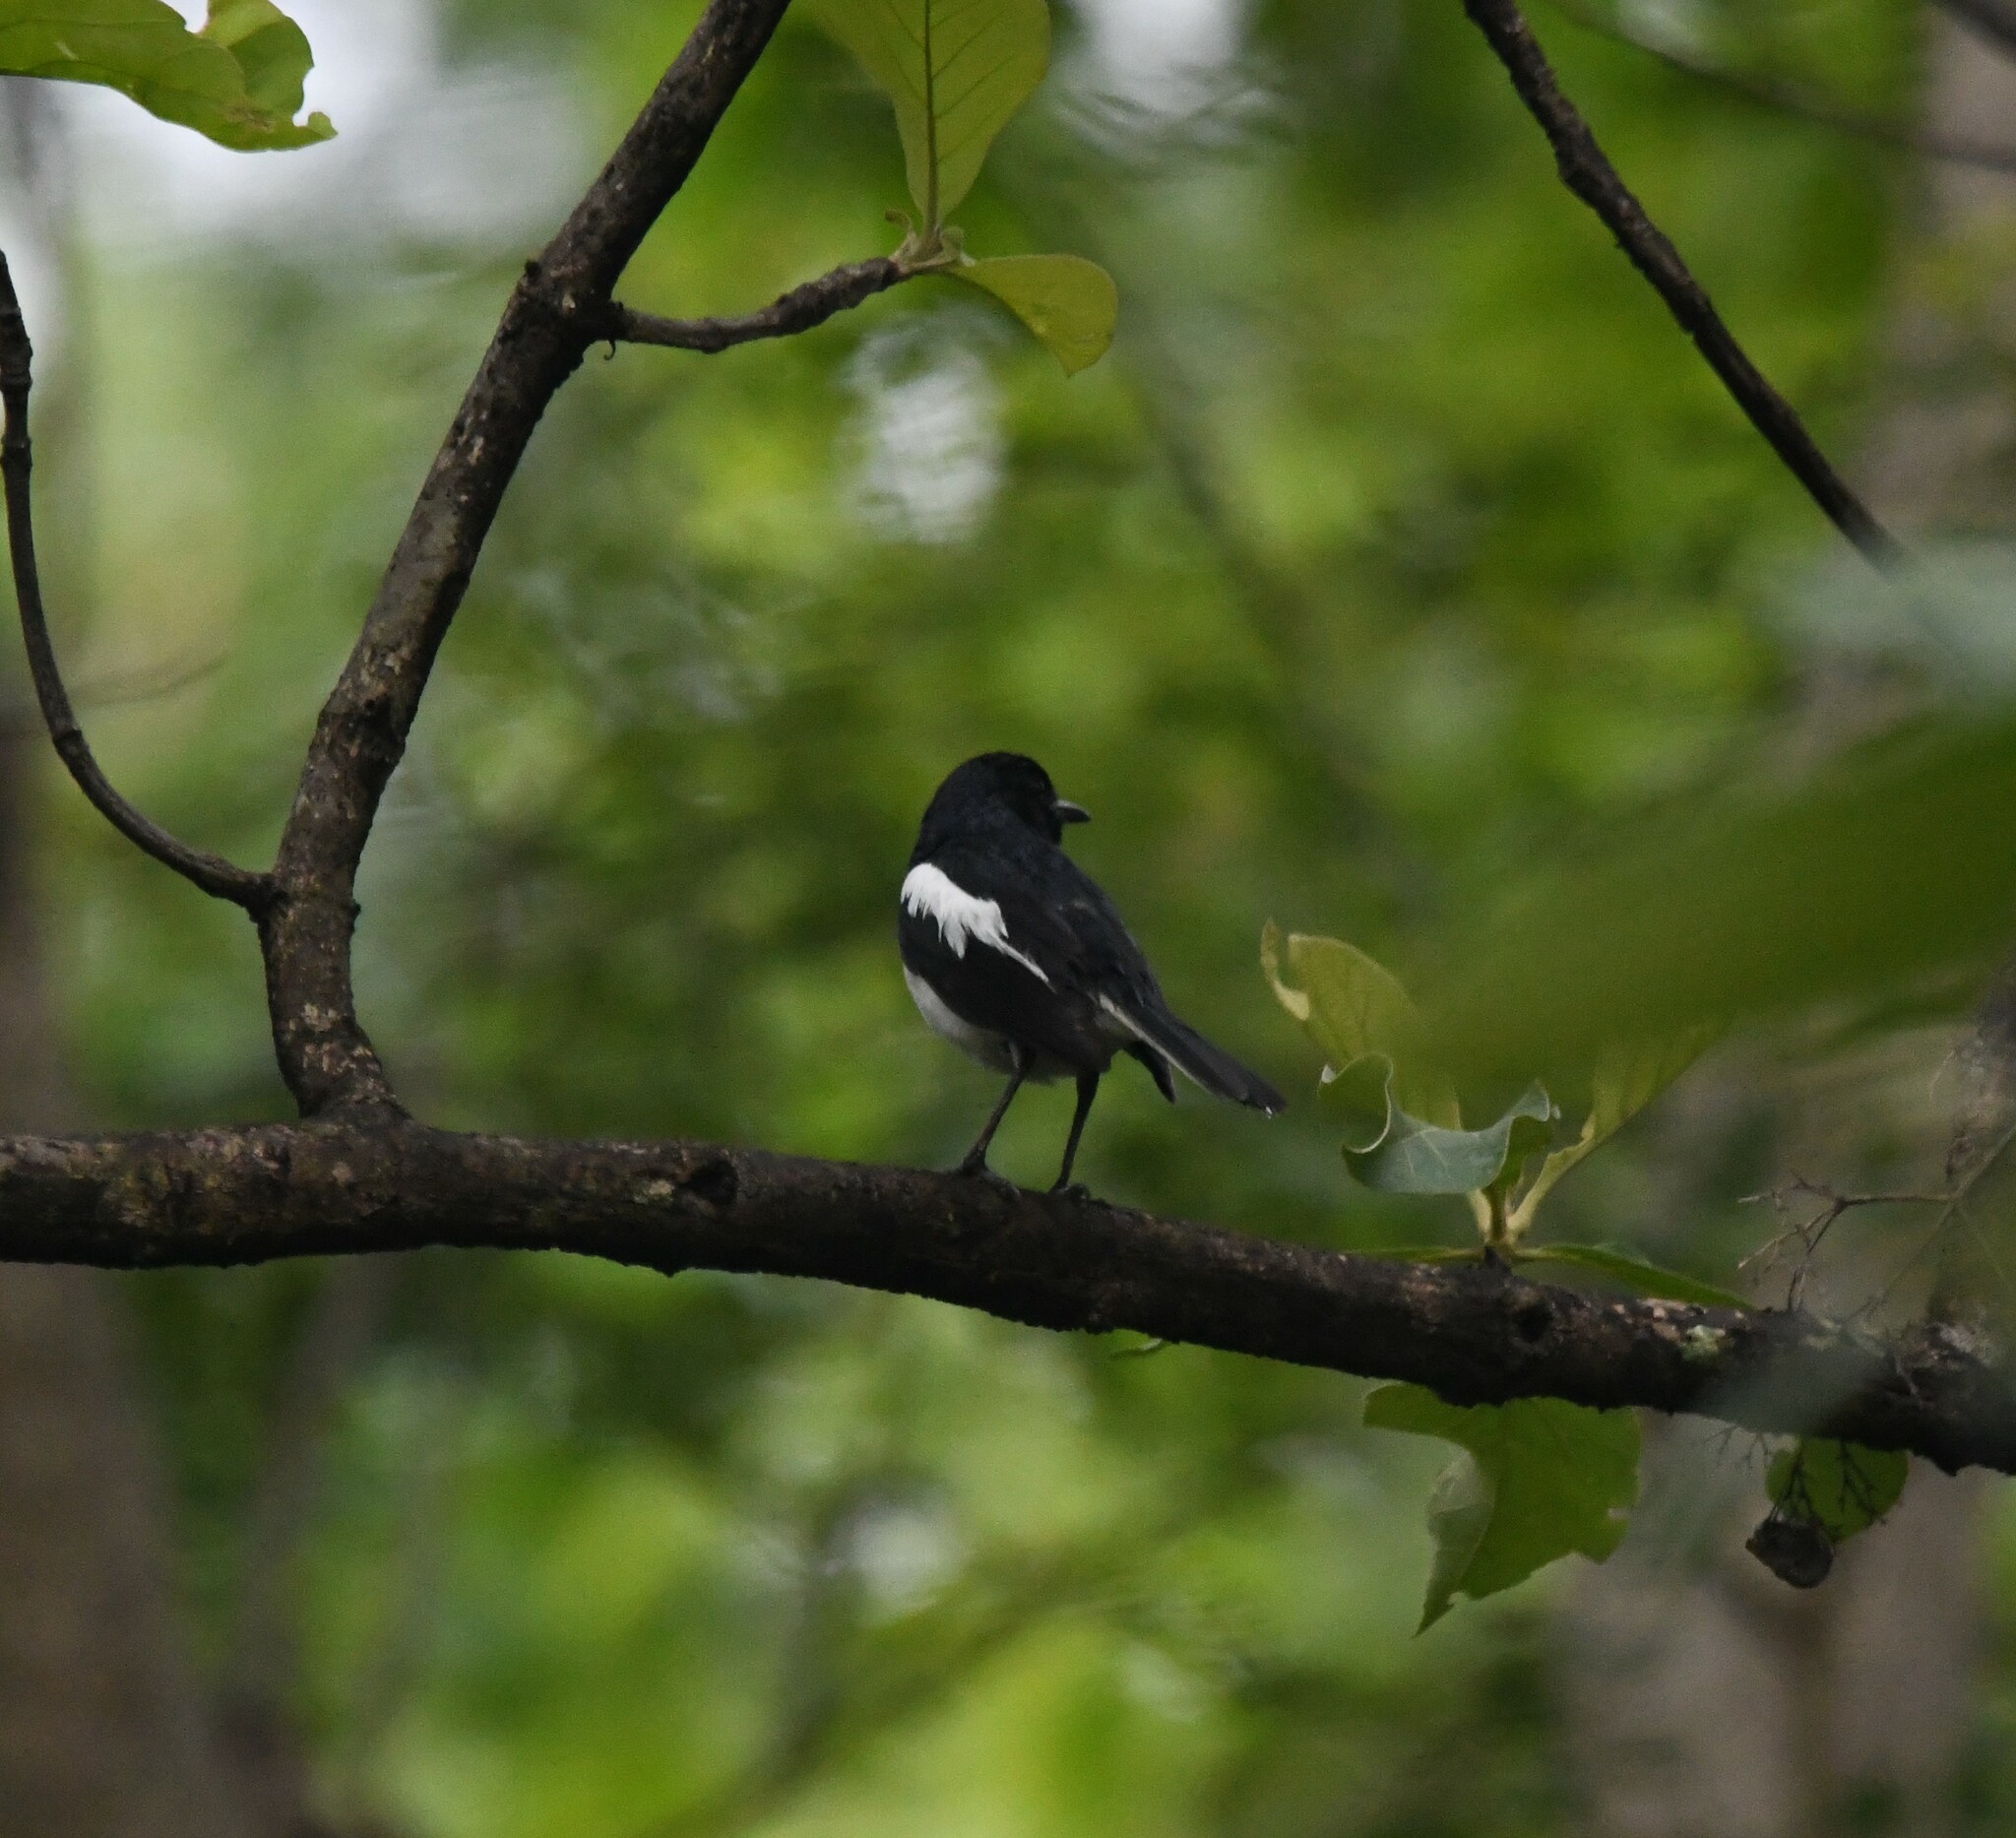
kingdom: Animalia
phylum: Chordata
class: Aves
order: Passeriformes
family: Muscicapidae
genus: Copsychus
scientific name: Copsychus saularis
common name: Oriental magpie-robin
